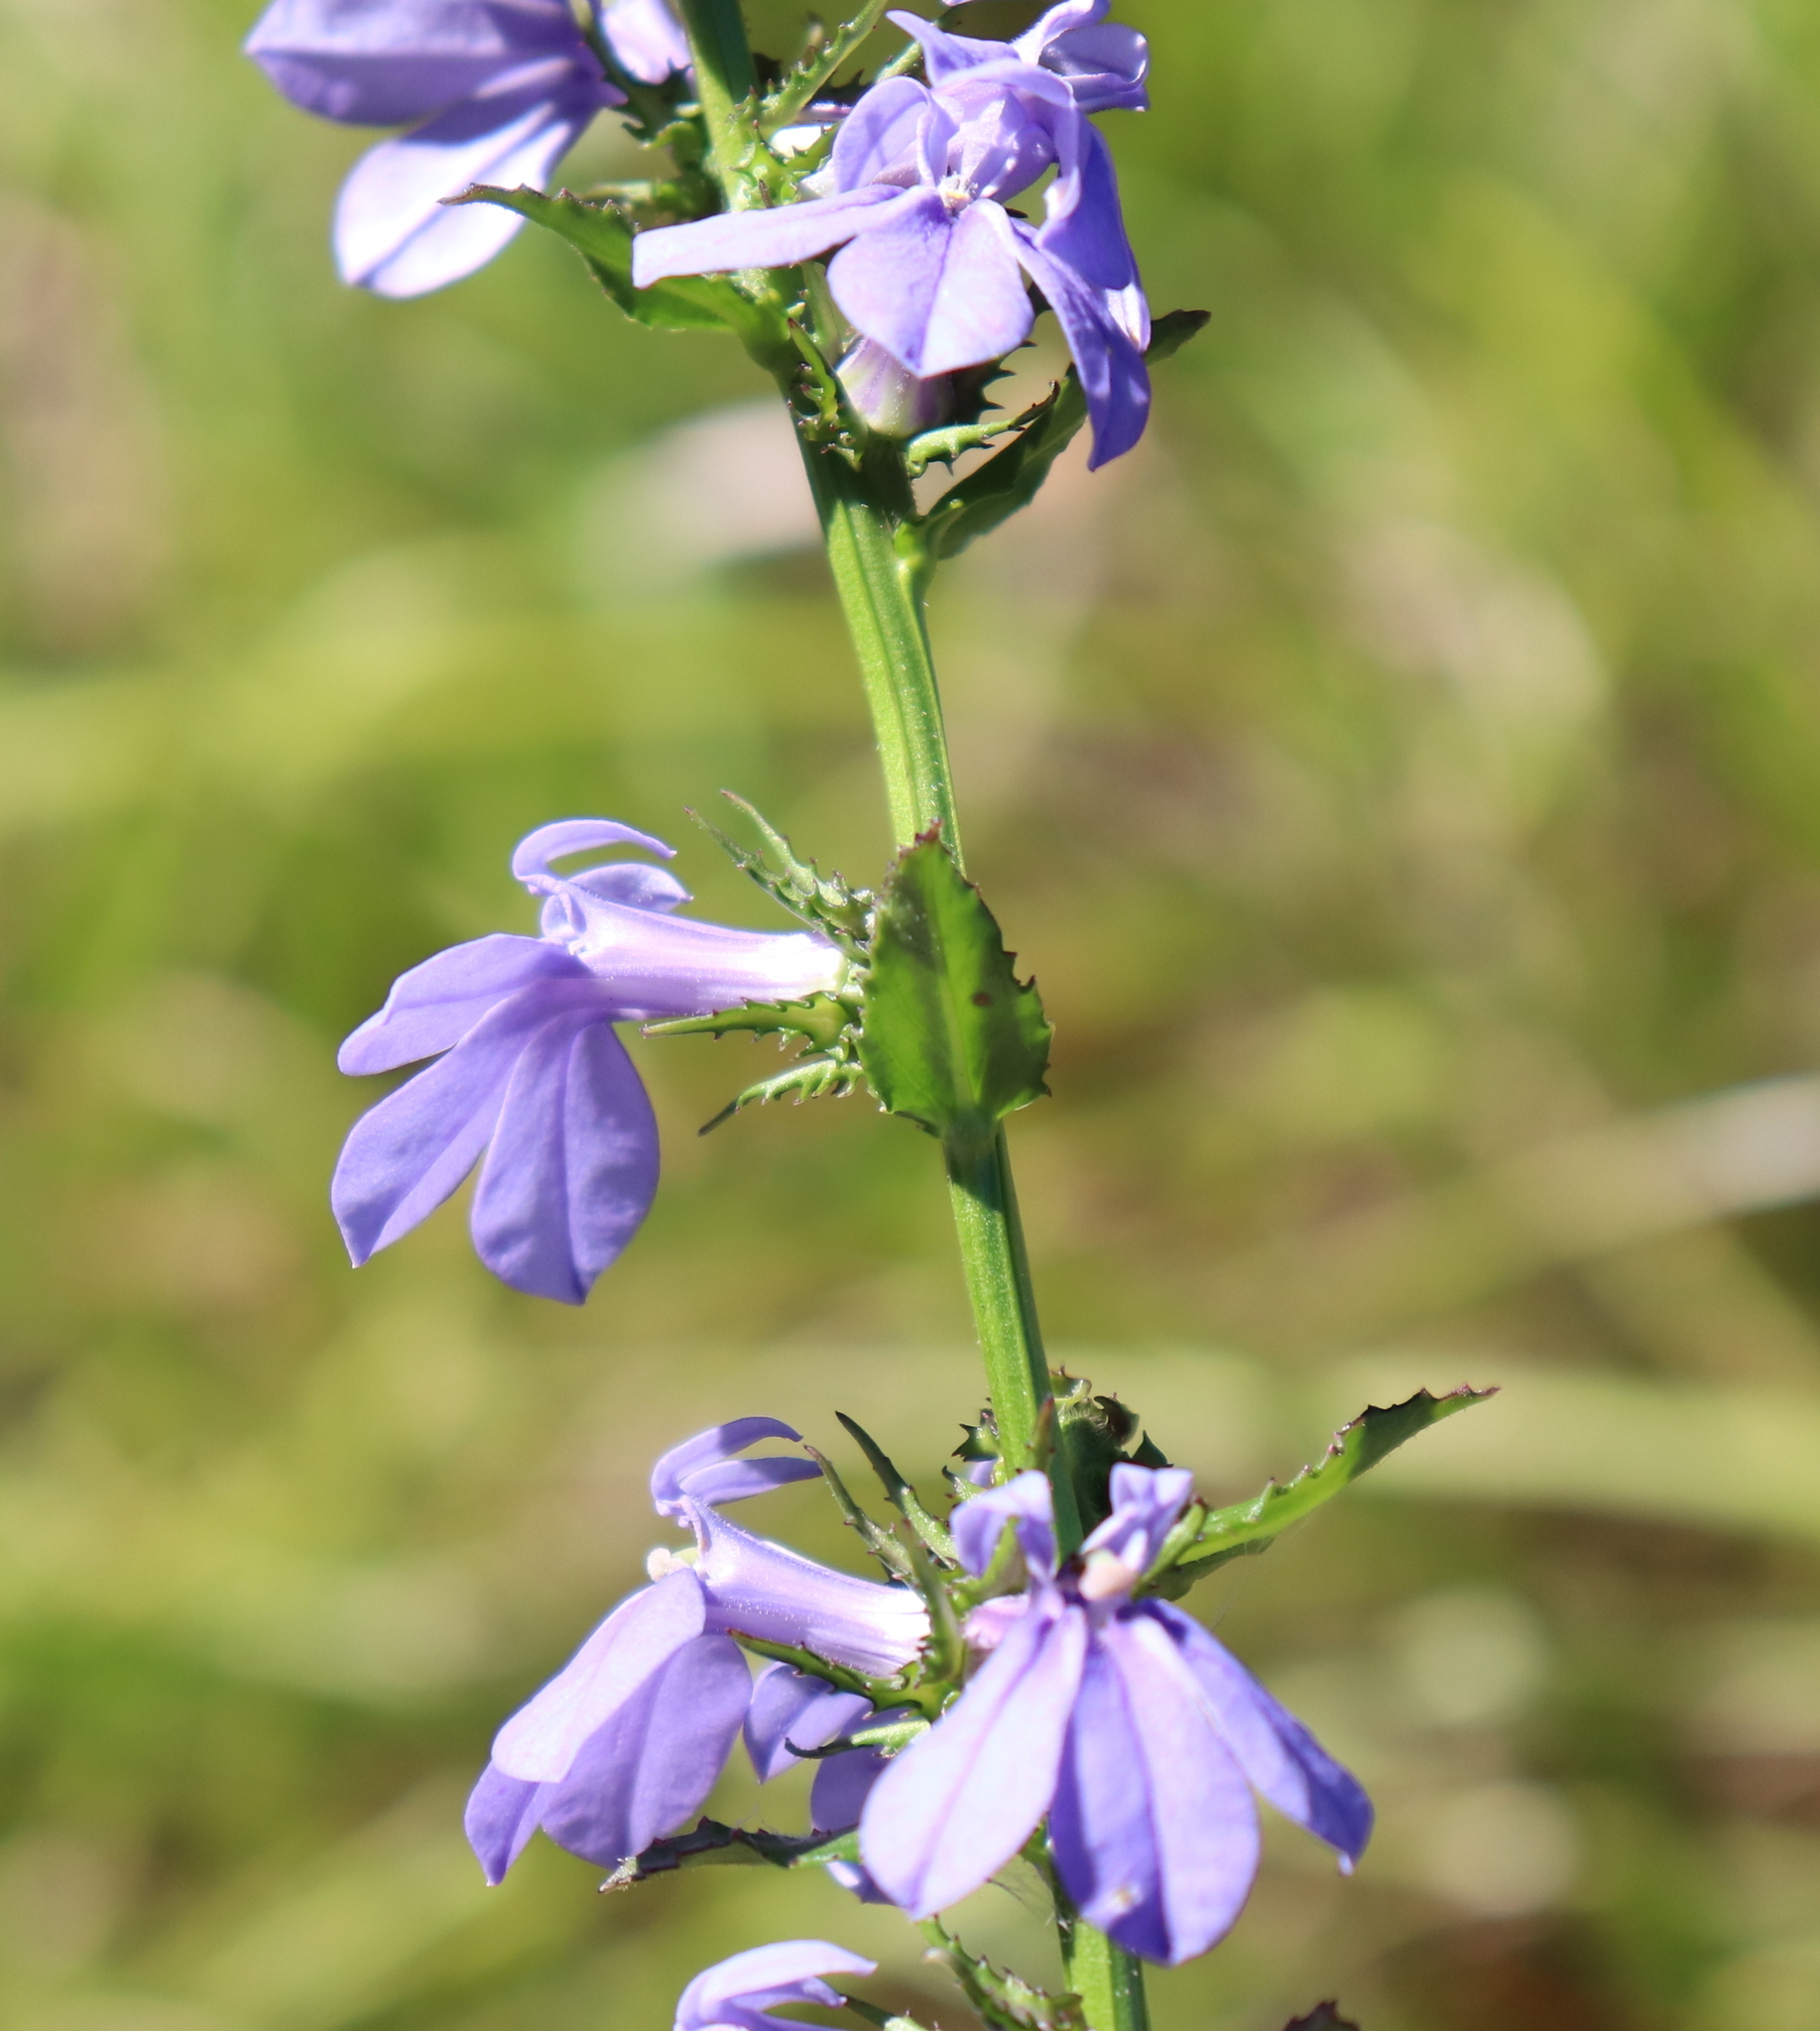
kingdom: Plantae
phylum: Tracheophyta
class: Magnoliopsida
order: Asterales
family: Campanulaceae
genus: Lobelia
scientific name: Lobelia rogersii
